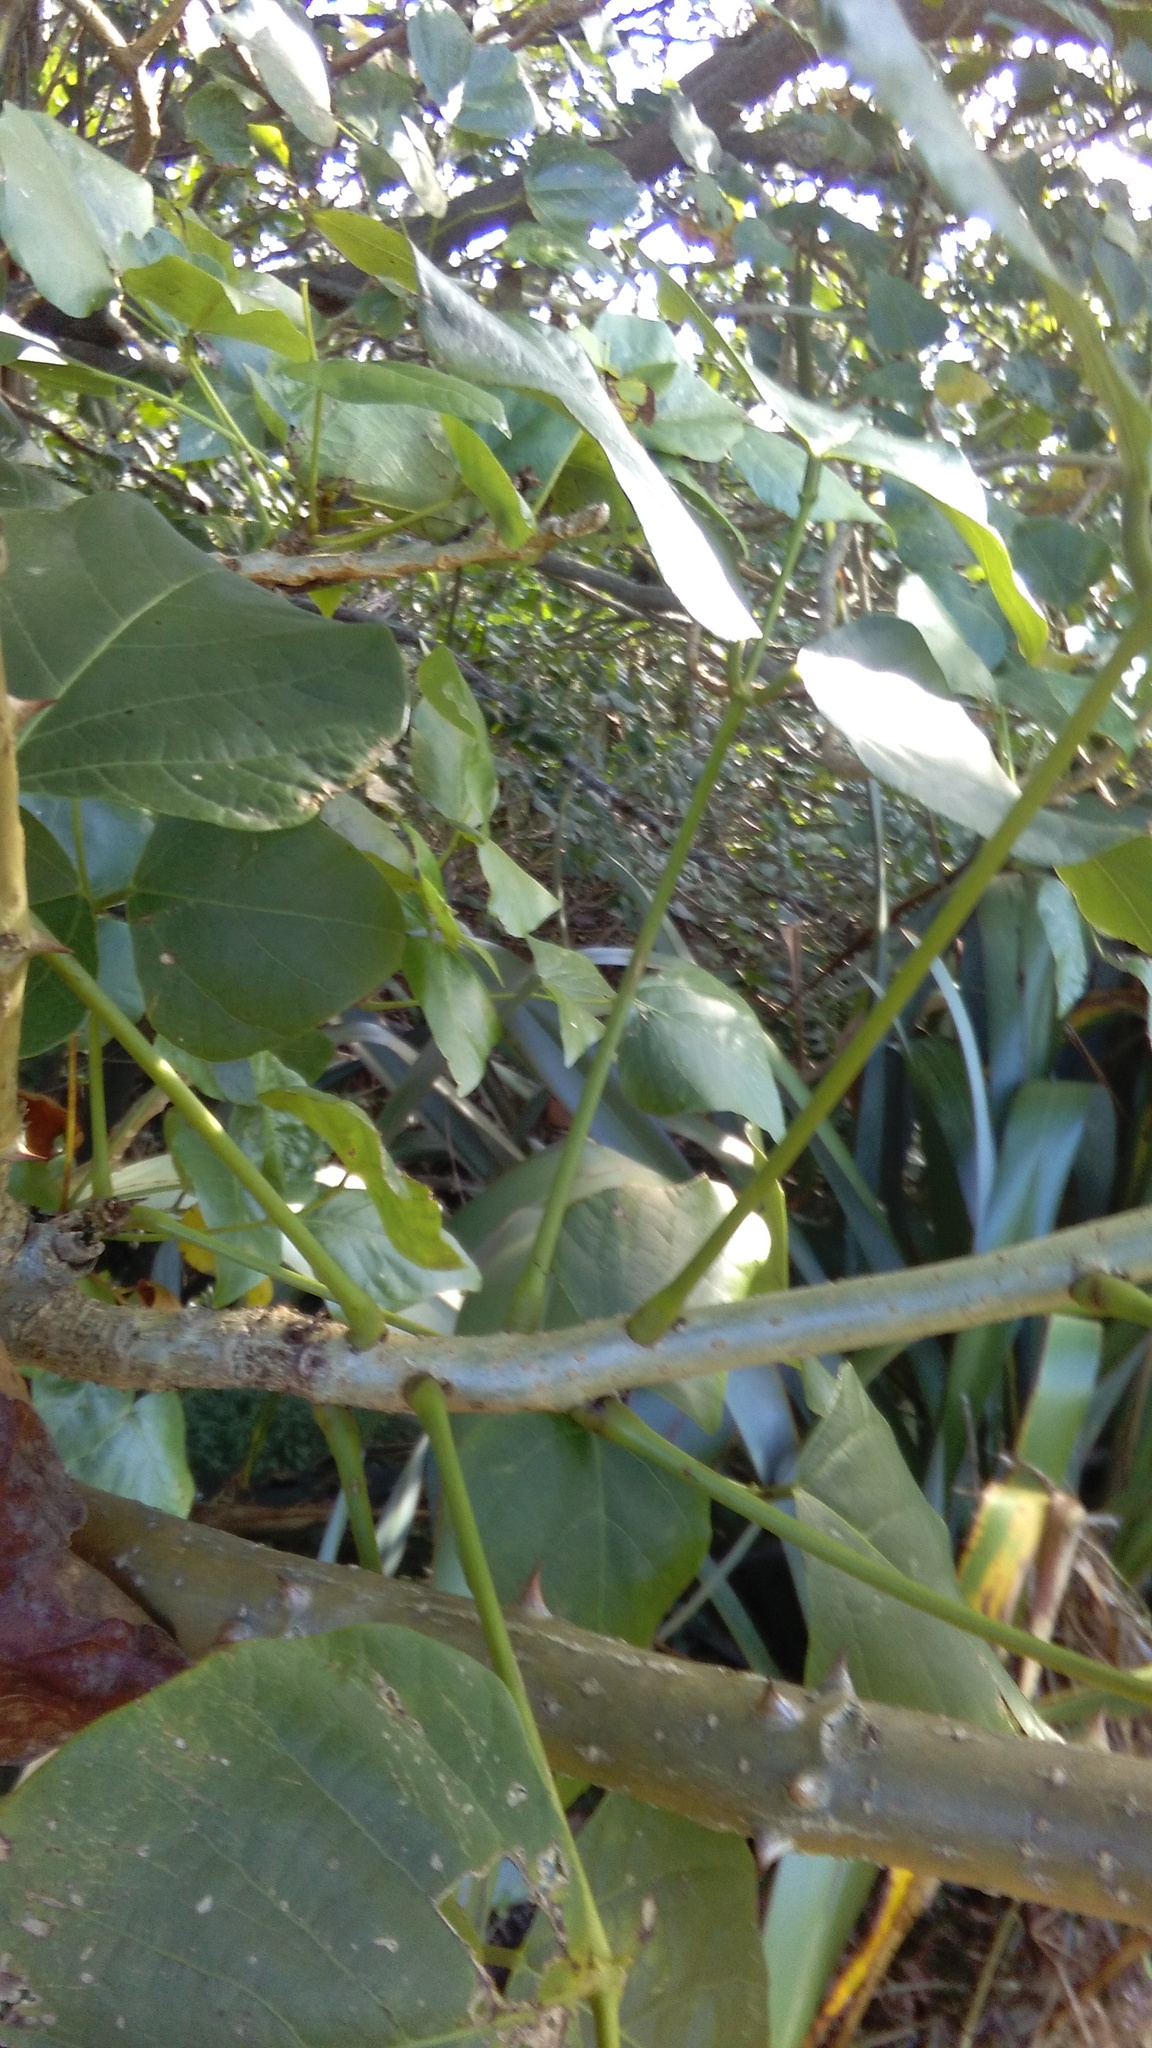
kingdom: Plantae
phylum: Tracheophyta
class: Magnoliopsida
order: Fabales
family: Fabaceae
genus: Erythrina
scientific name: Erythrina sykesii
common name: Coraltree
